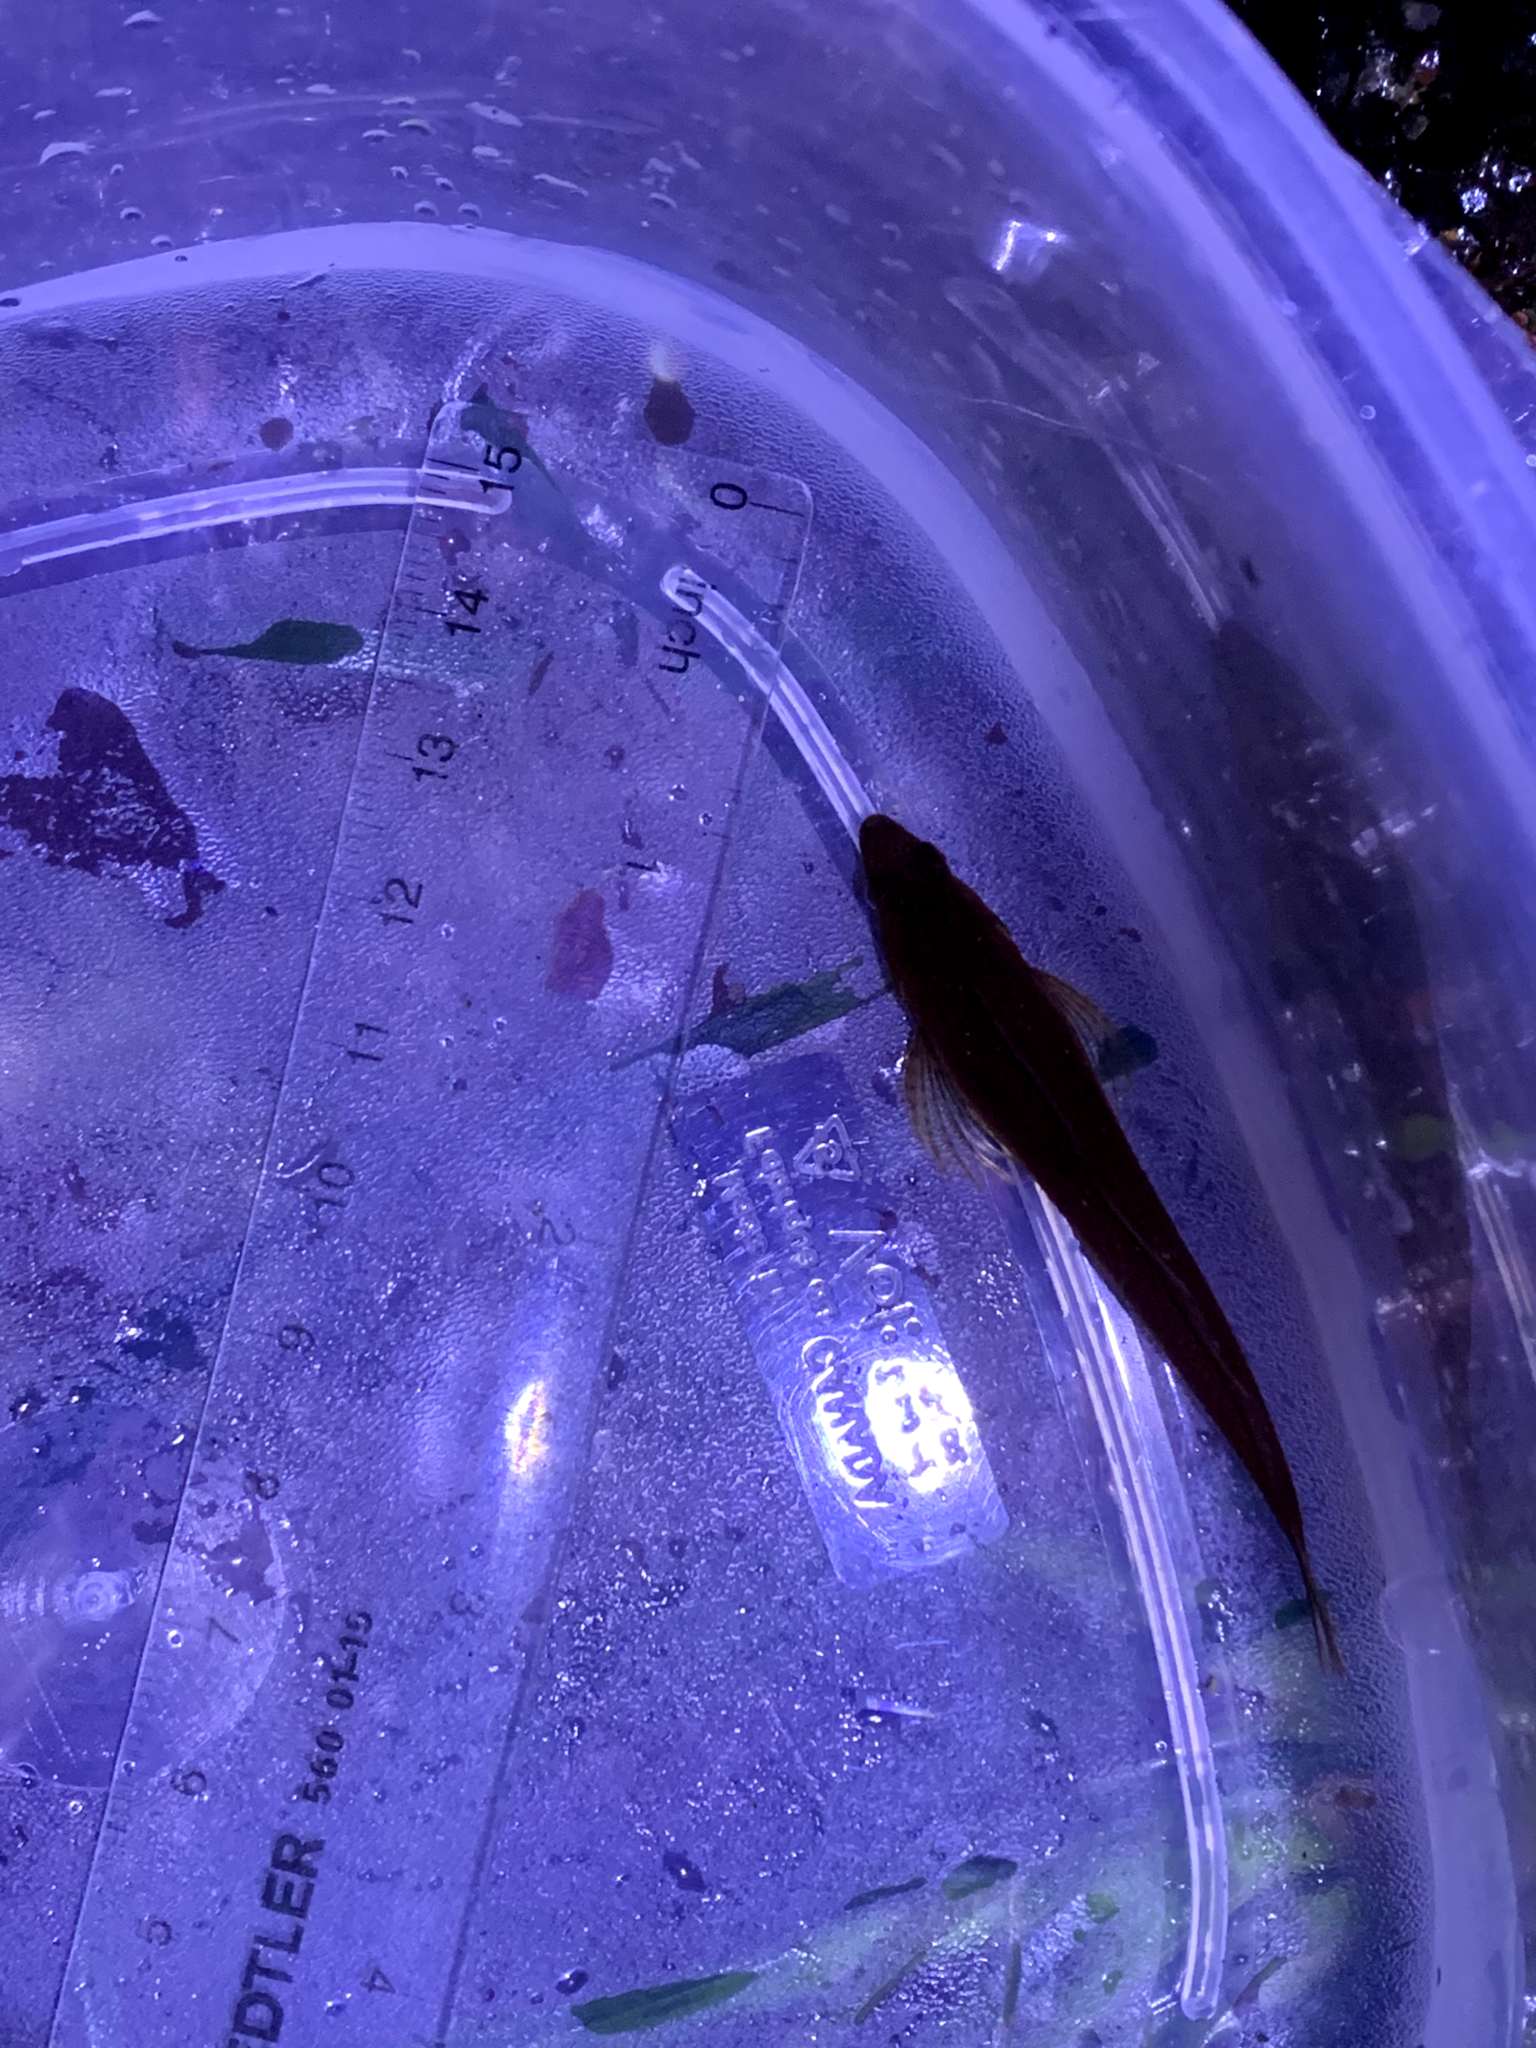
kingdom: Animalia
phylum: Chordata
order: Scorpaeniformes
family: Cottidae
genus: Synchirus
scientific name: Synchirus gilli
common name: Manacled sculpin
